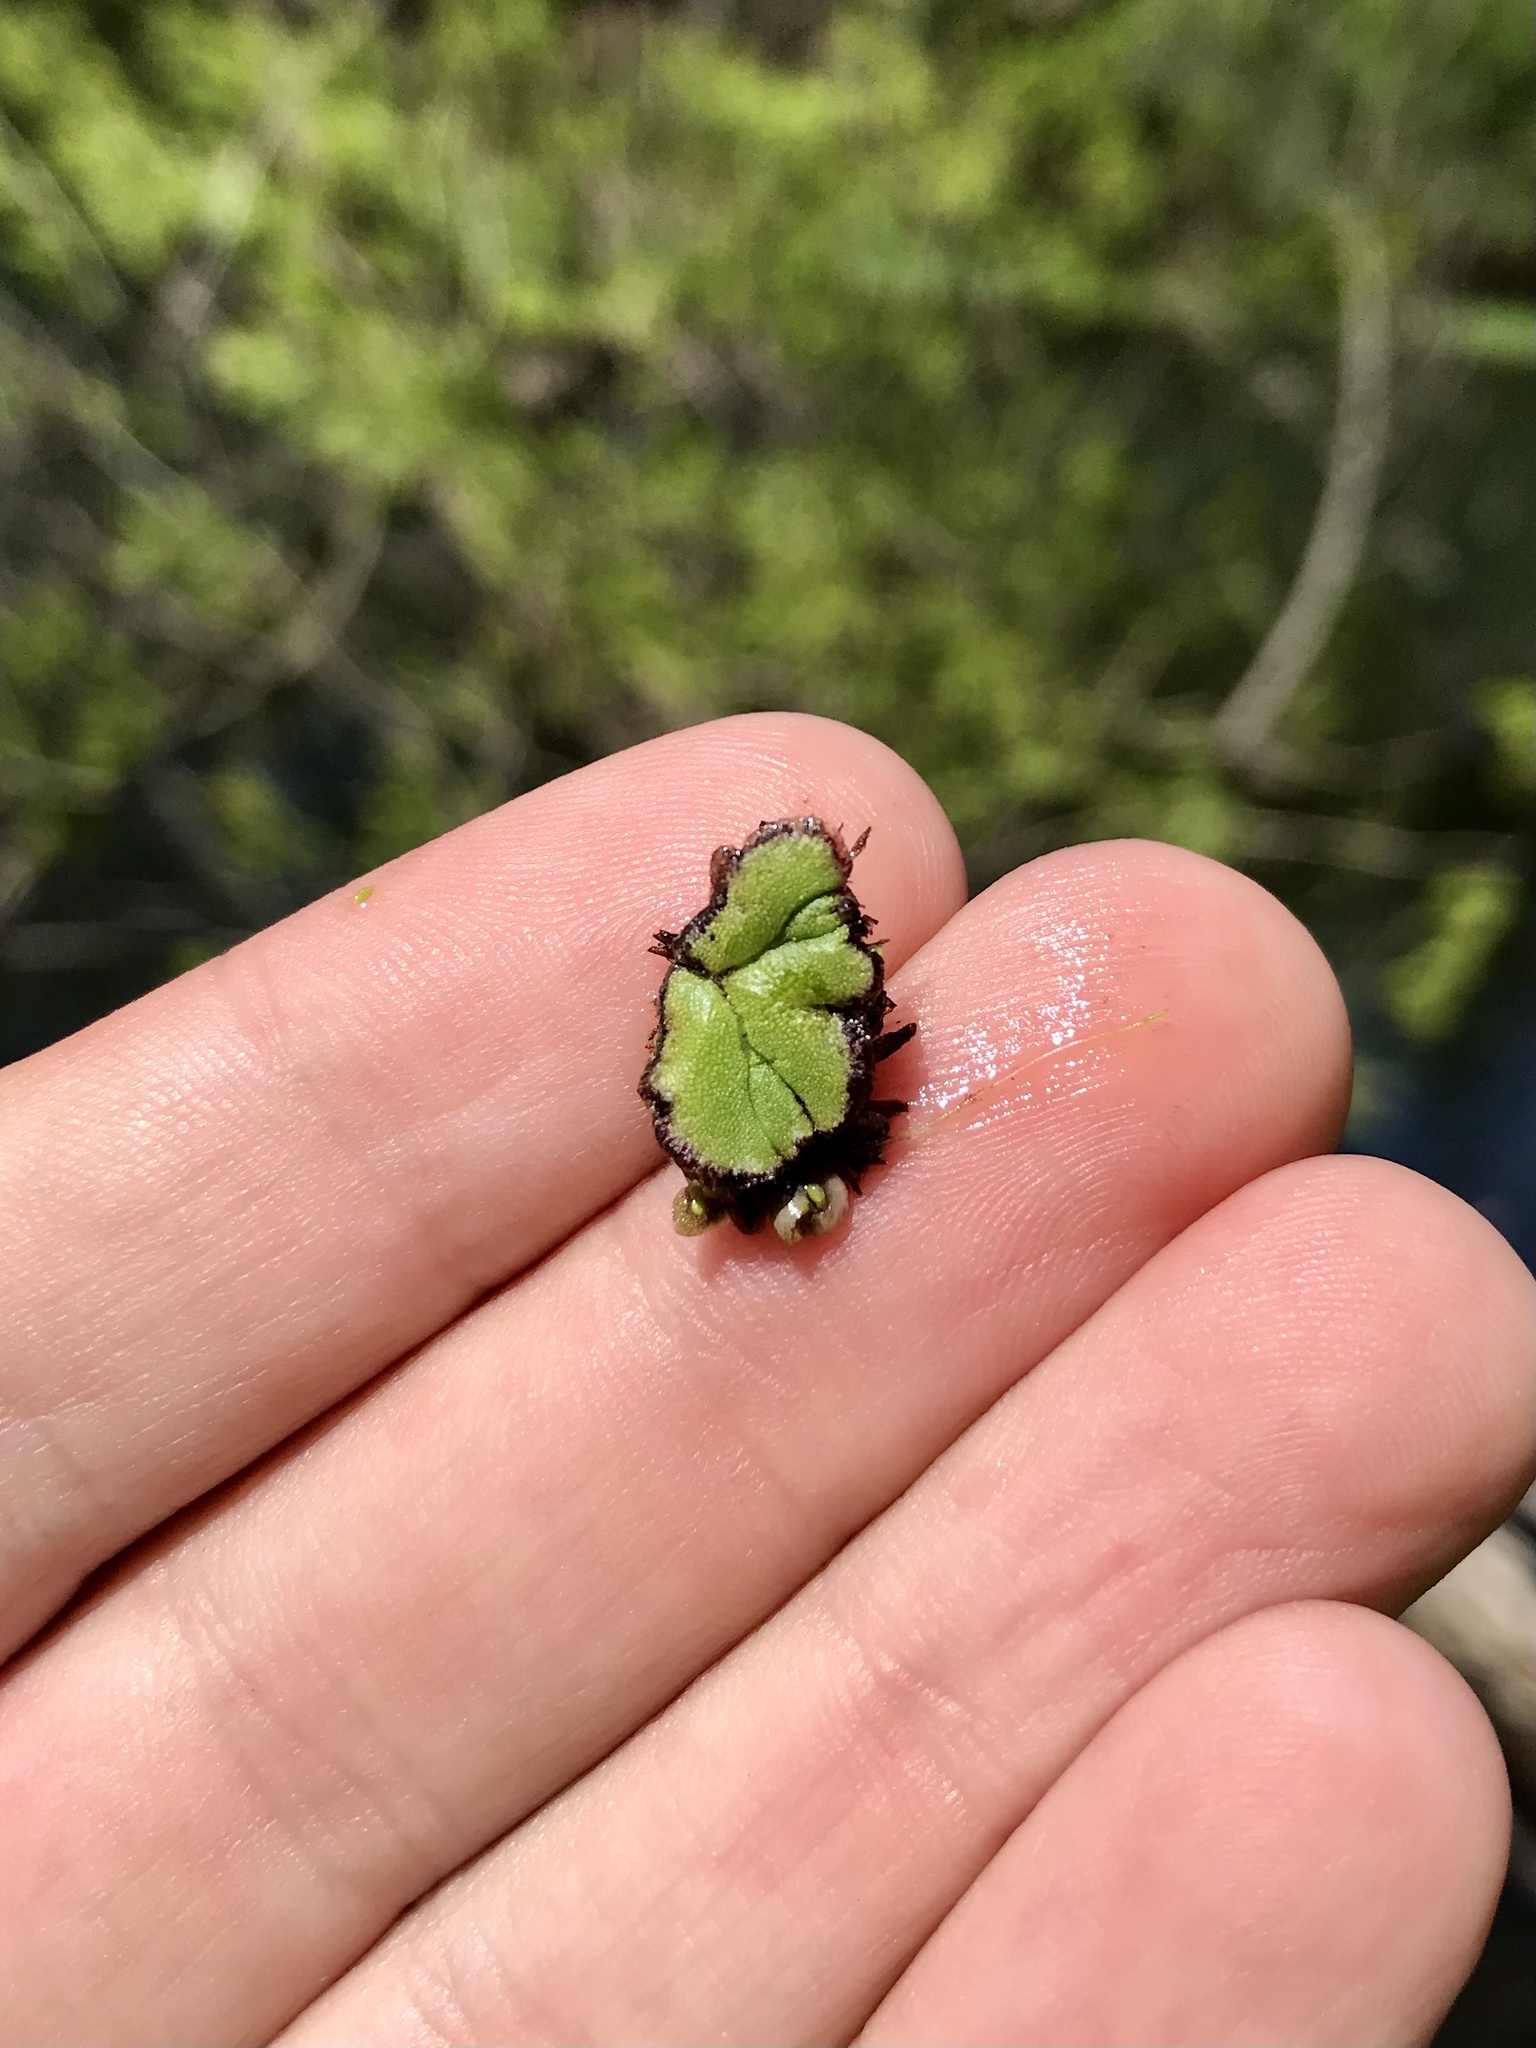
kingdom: Plantae
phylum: Marchantiophyta
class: Marchantiopsida
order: Marchantiales
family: Ricciaceae
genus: Ricciocarpos
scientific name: Ricciocarpos natans
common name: Purple-fringed liverwort
